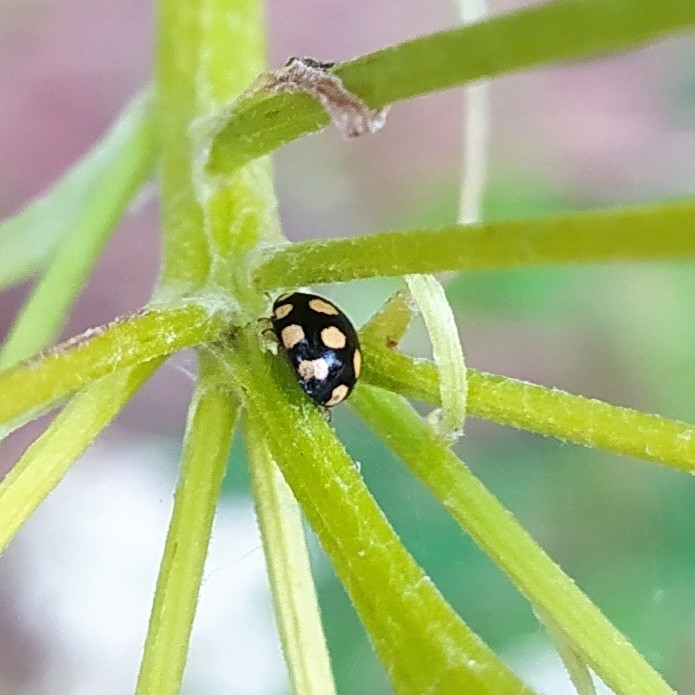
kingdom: Animalia
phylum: Arthropoda
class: Insecta
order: Coleoptera
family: Coccinellidae
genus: Coccinula
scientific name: Coccinula quatuordecimpustulata
